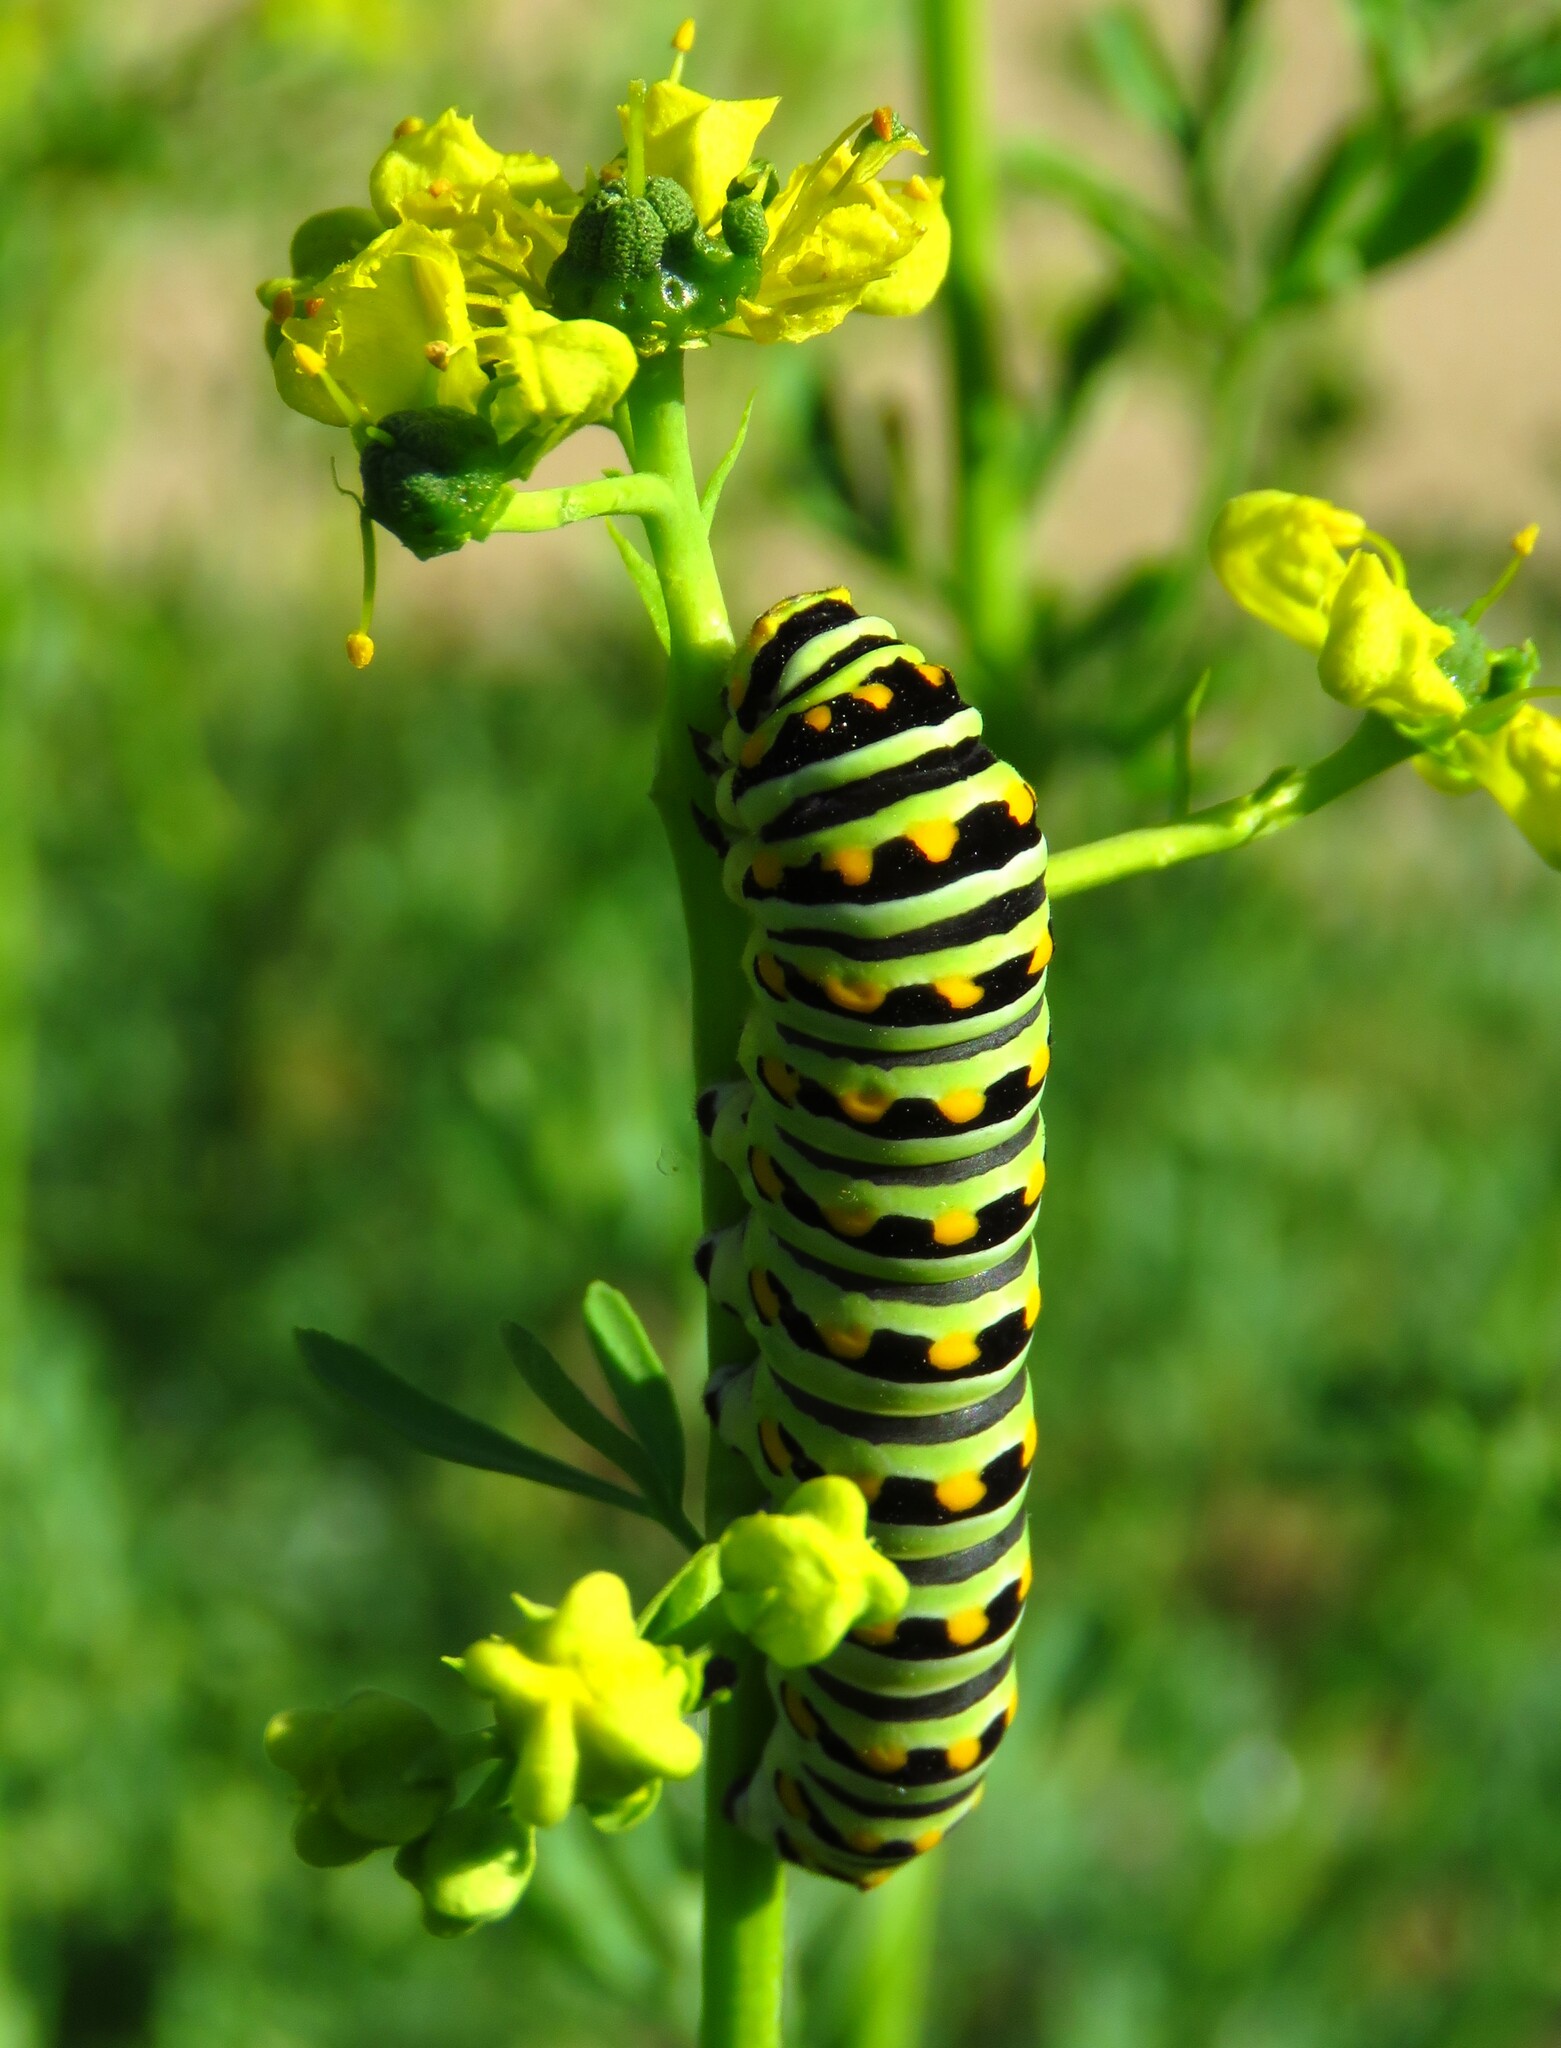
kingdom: Animalia
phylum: Arthropoda
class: Insecta
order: Lepidoptera
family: Papilionidae
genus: Papilio
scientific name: Papilio polyxenes
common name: Black swallowtail
